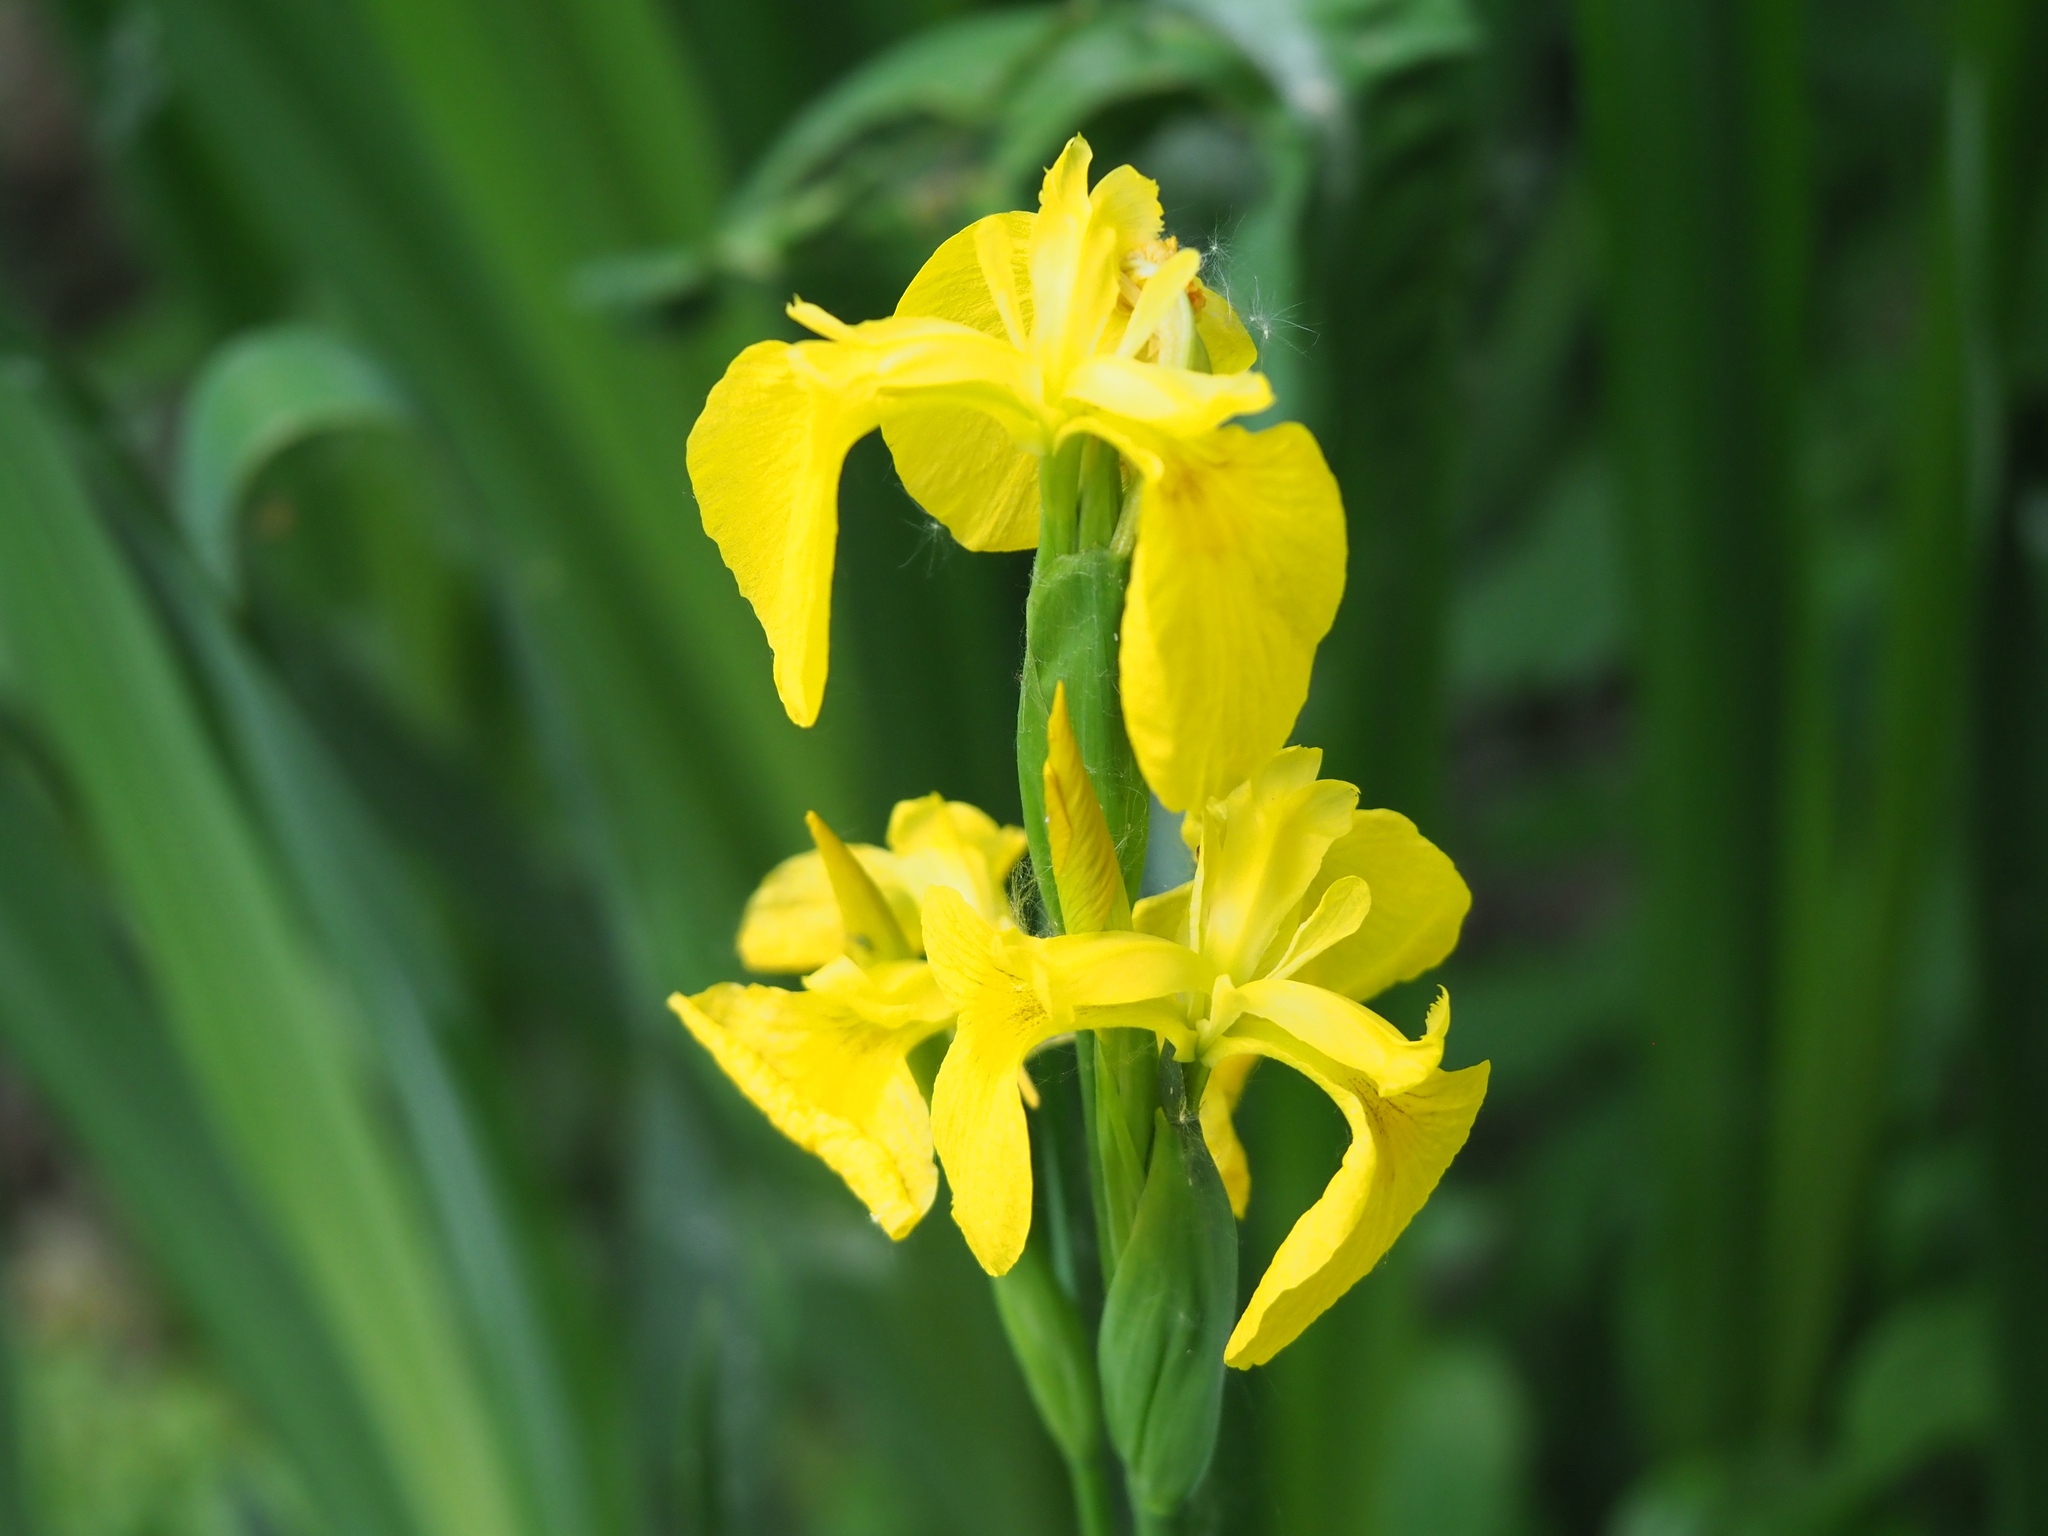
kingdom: Plantae
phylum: Tracheophyta
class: Liliopsida
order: Asparagales
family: Iridaceae
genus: Iris
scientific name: Iris pseudacorus
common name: Yellow flag
